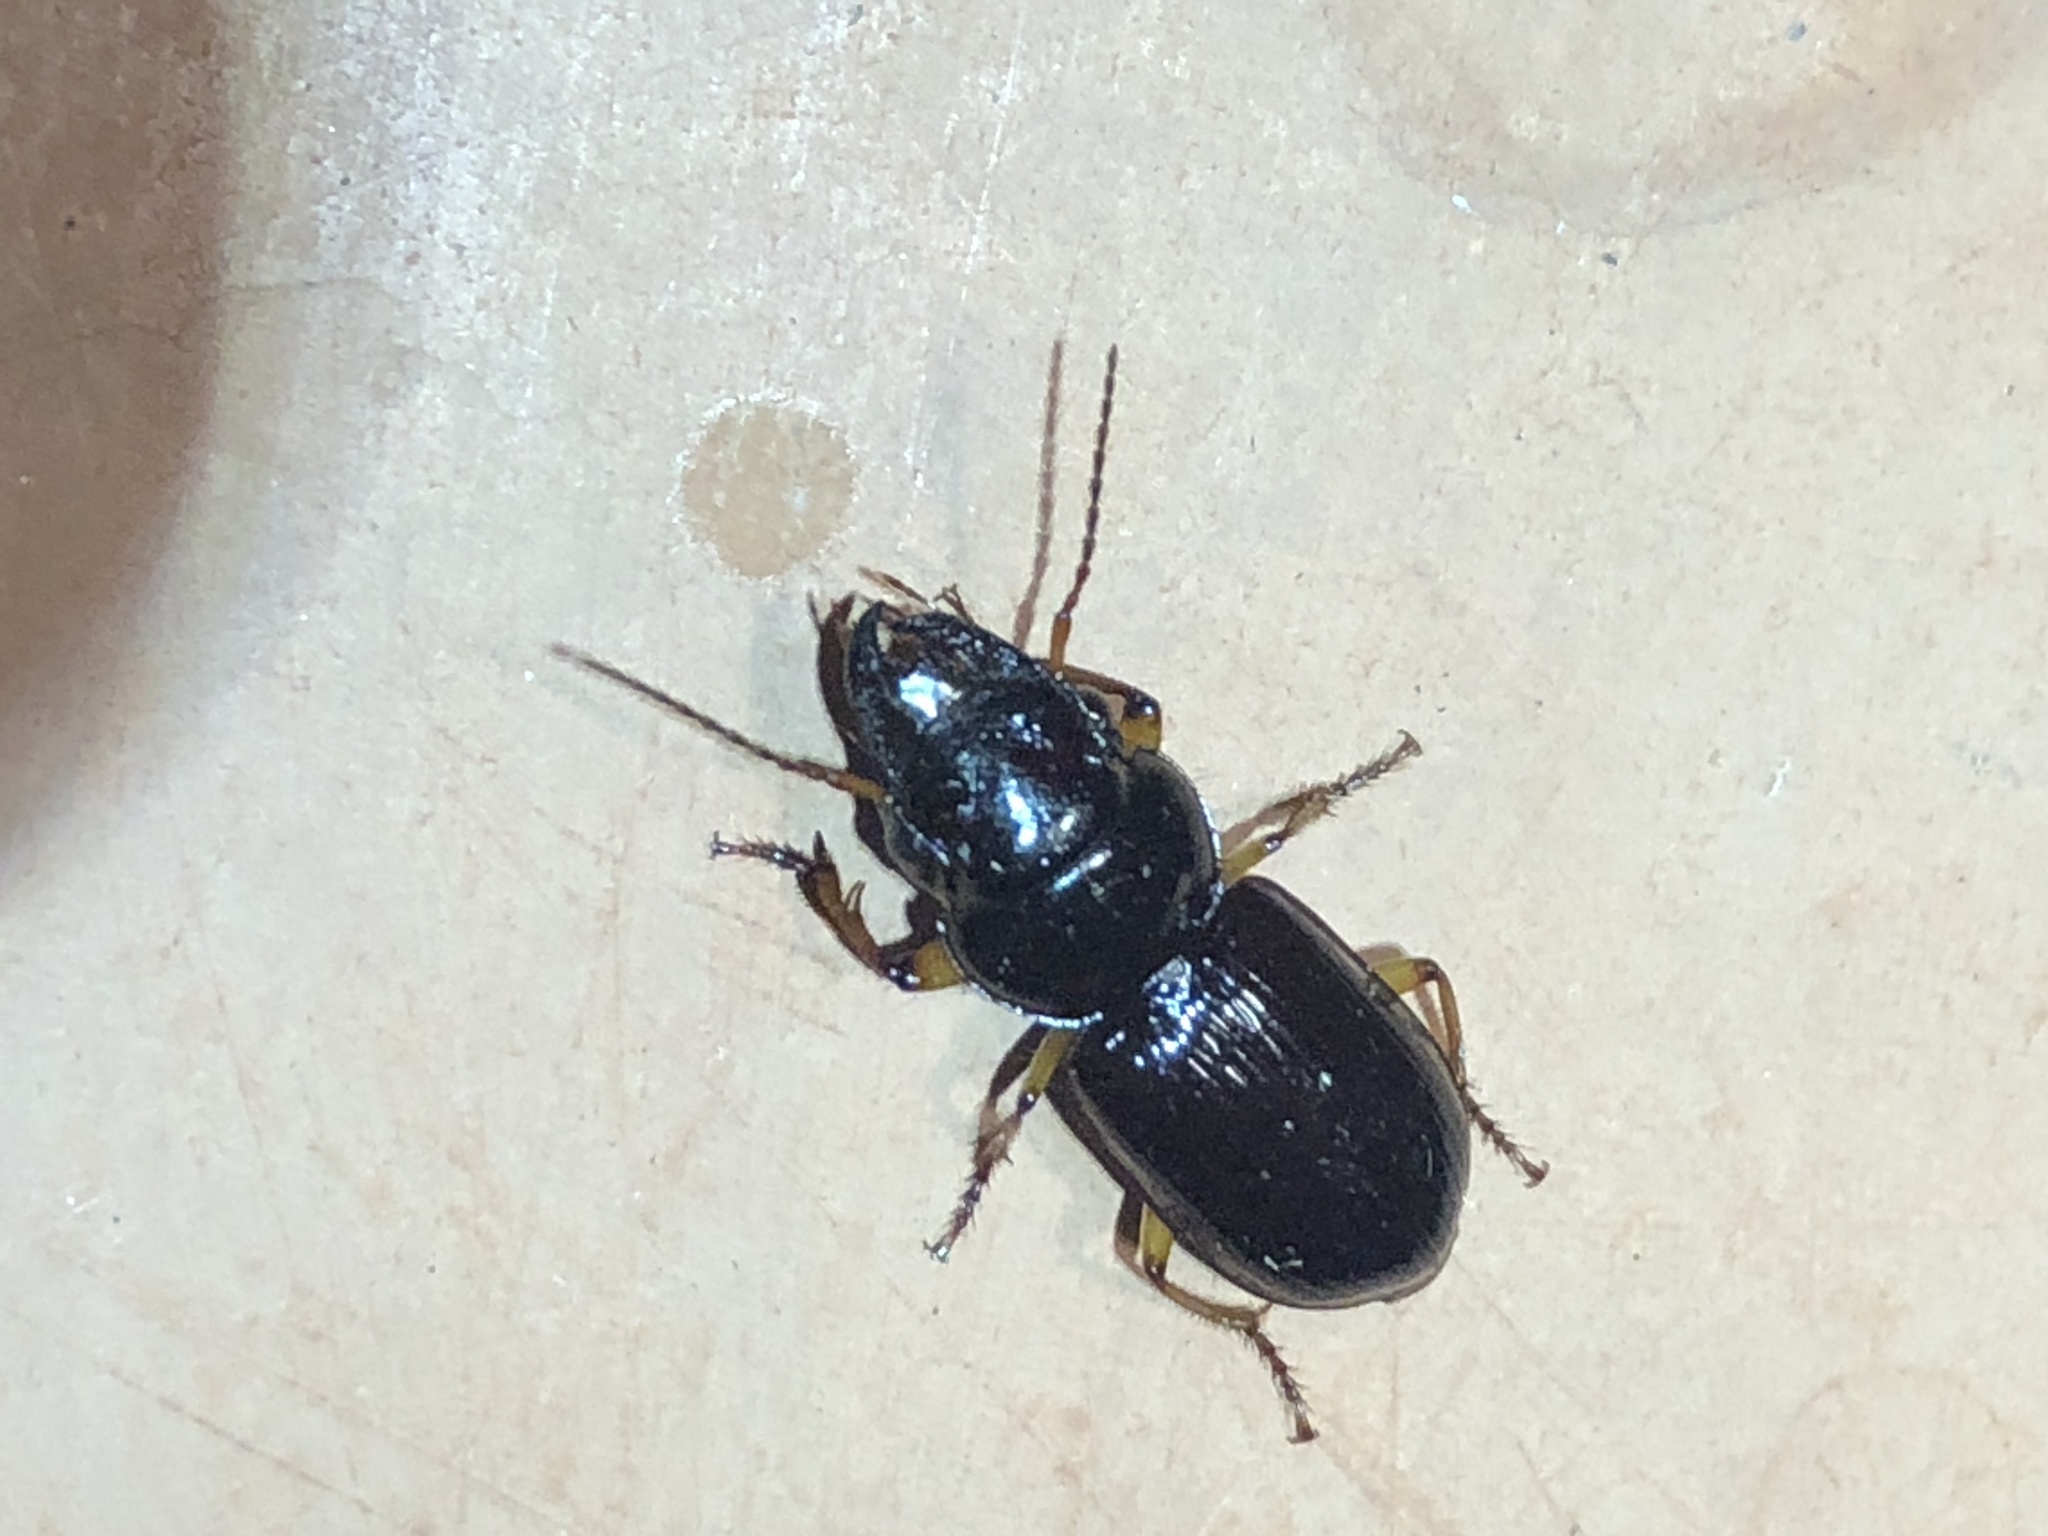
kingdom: Animalia
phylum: Arthropoda
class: Insecta
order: Coleoptera
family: Carabidae
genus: Polpochila
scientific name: Polpochila erro
